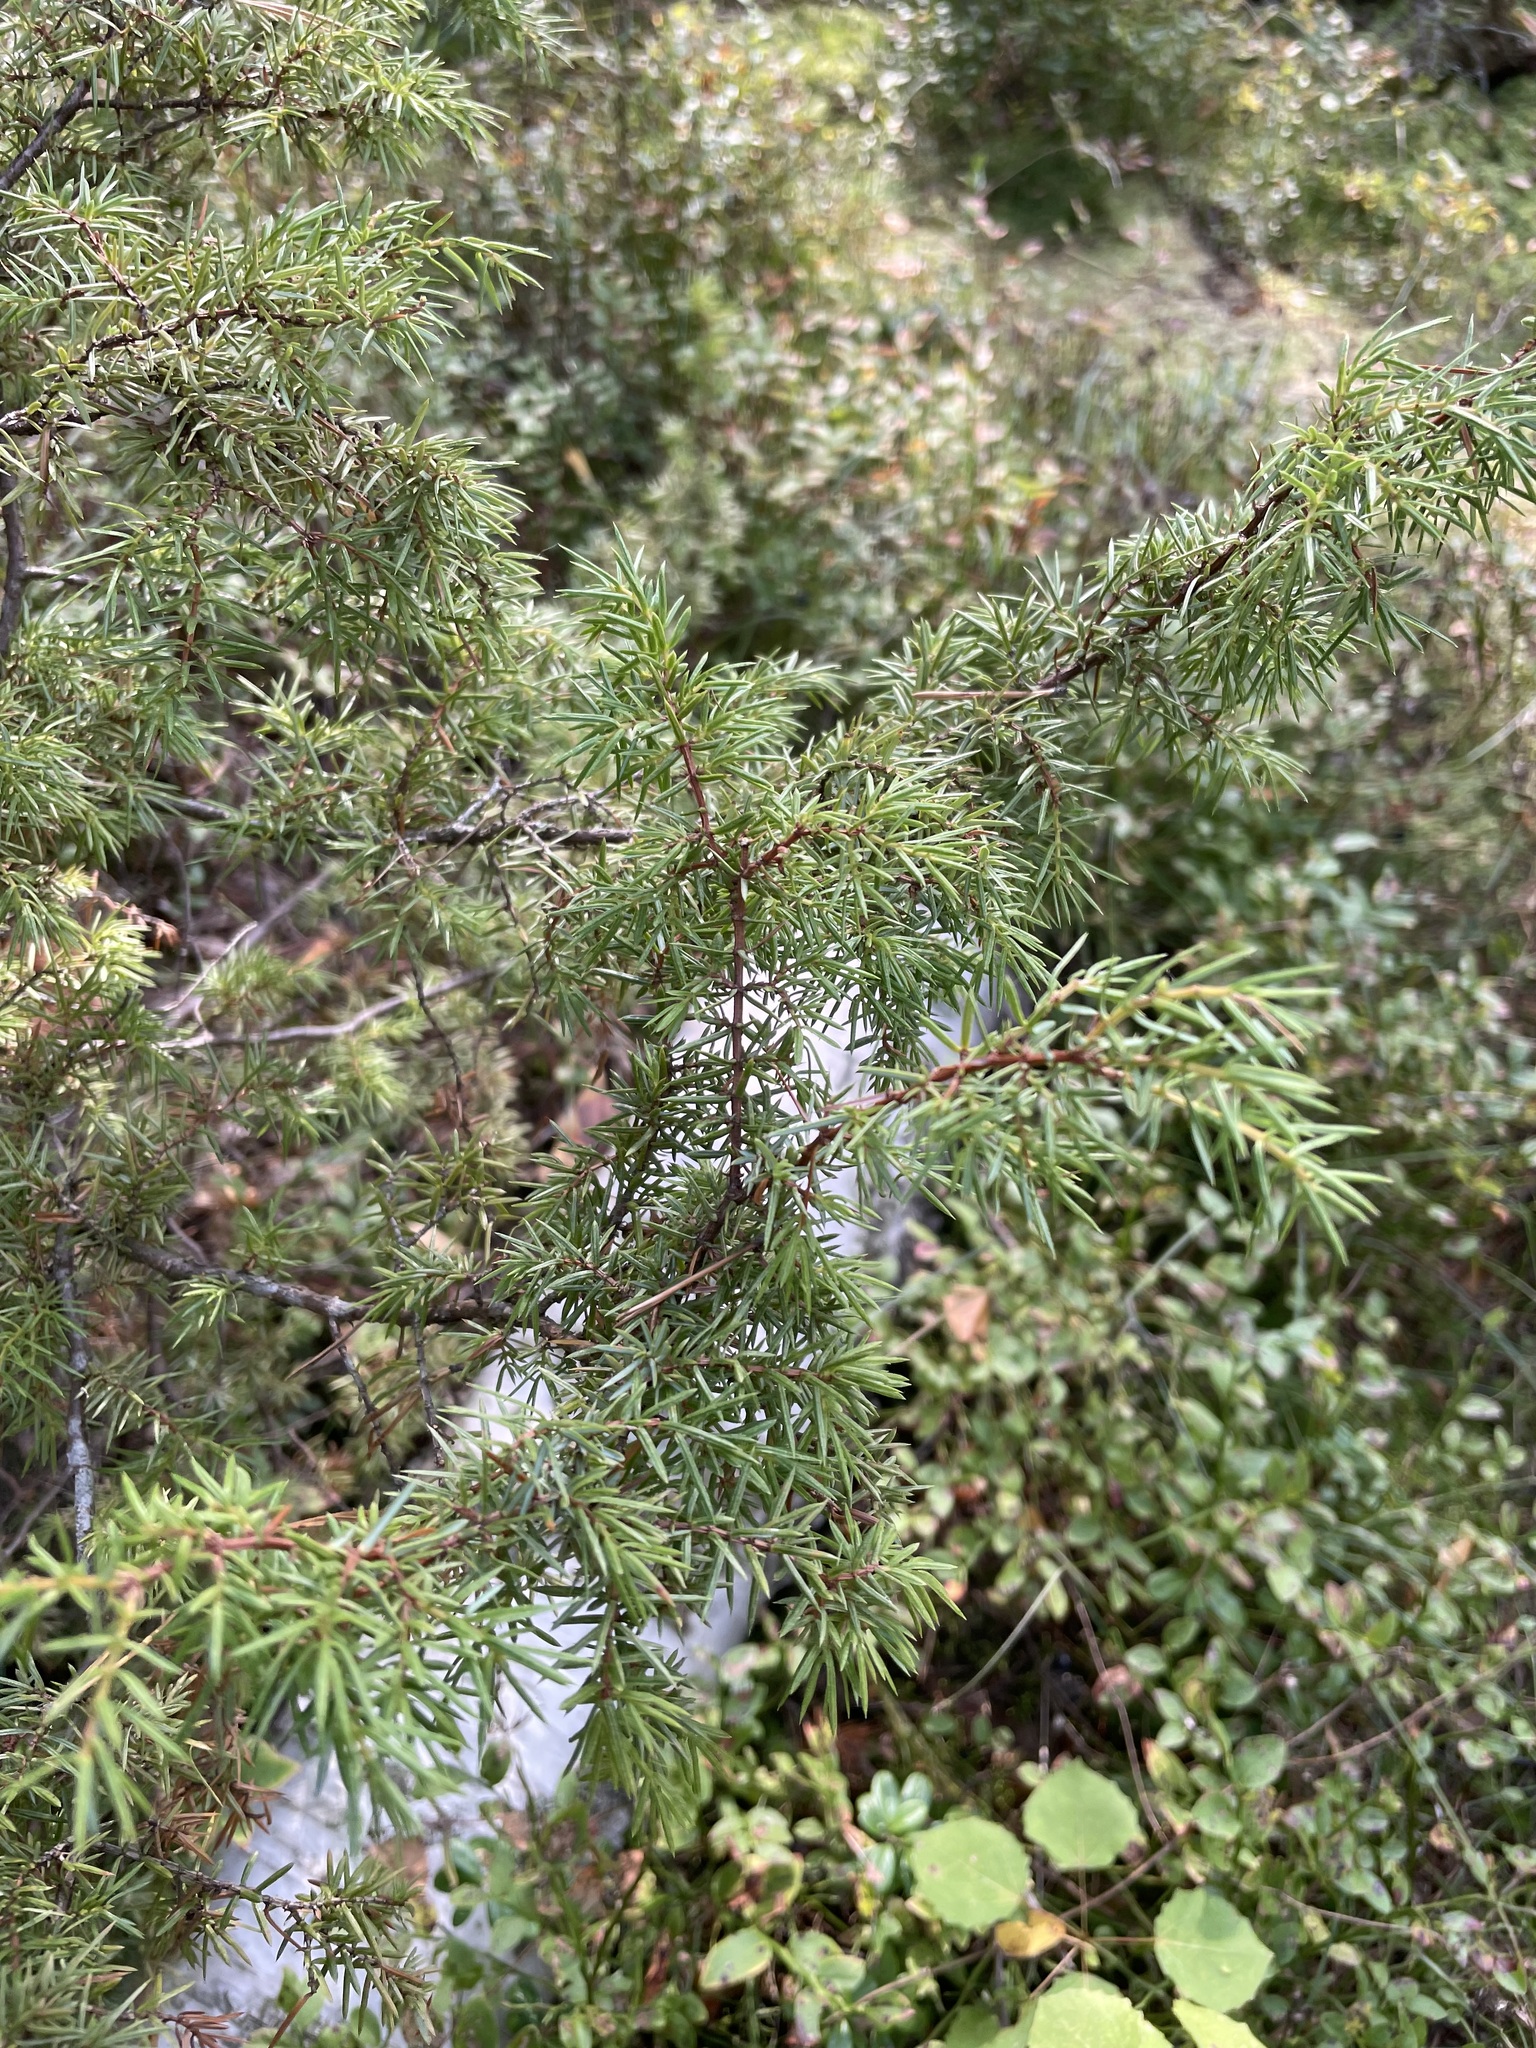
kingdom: Plantae
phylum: Tracheophyta
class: Pinopsida
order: Pinales
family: Cupressaceae
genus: Juniperus
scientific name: Juniperus communis
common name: Common juniper
